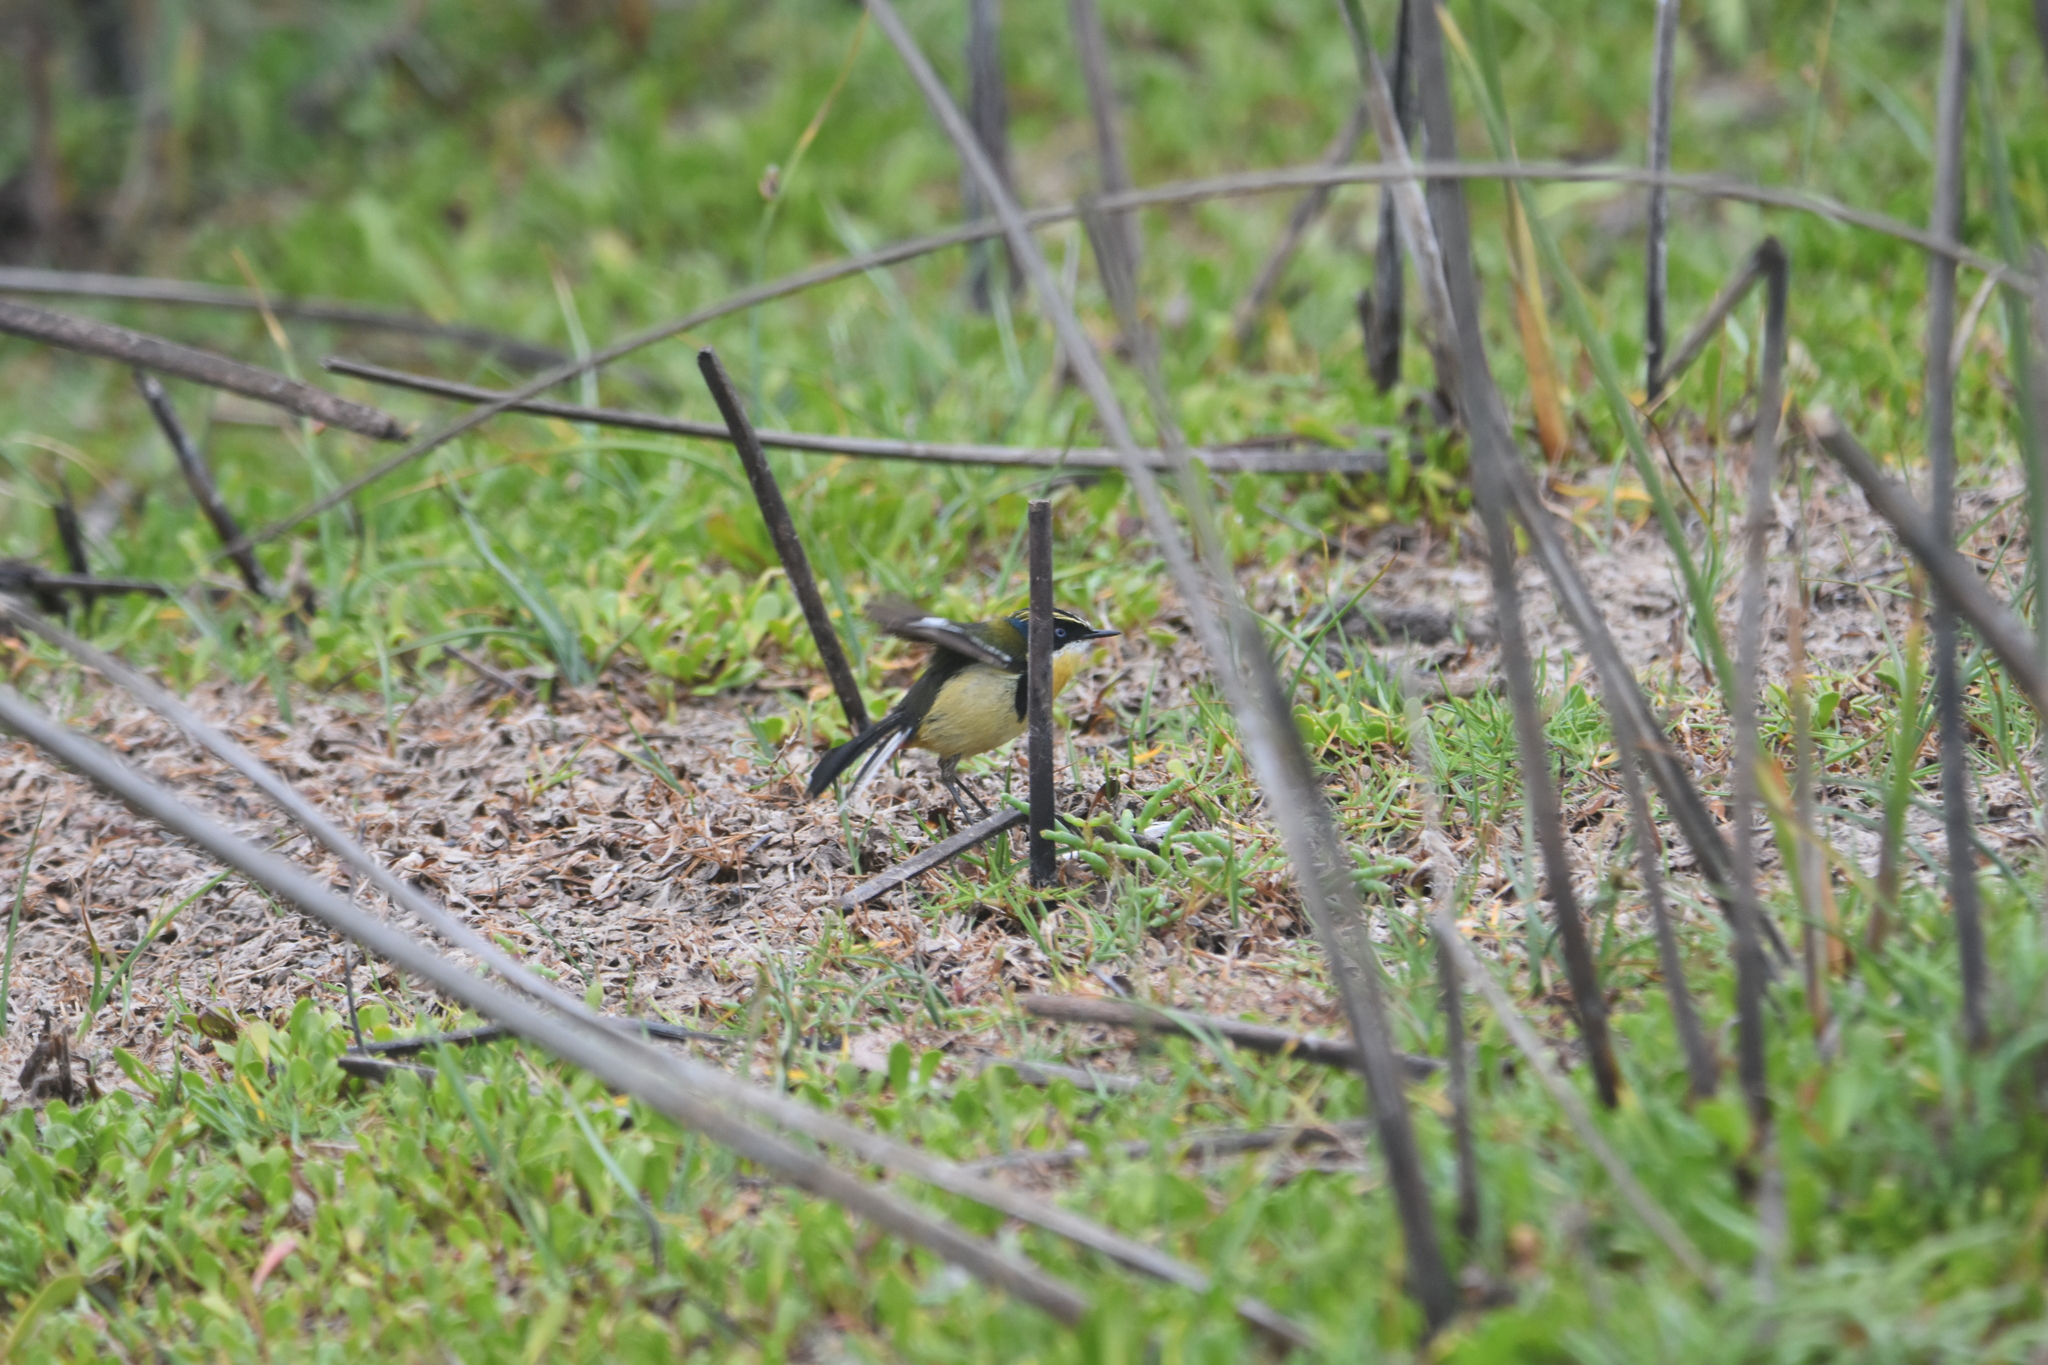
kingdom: Animalia
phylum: Chordata
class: Aves
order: Passeriformes
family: Tyrannidae
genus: Tachuris
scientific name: Tachuris rubrigastra
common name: Many-colored rush tyrant
